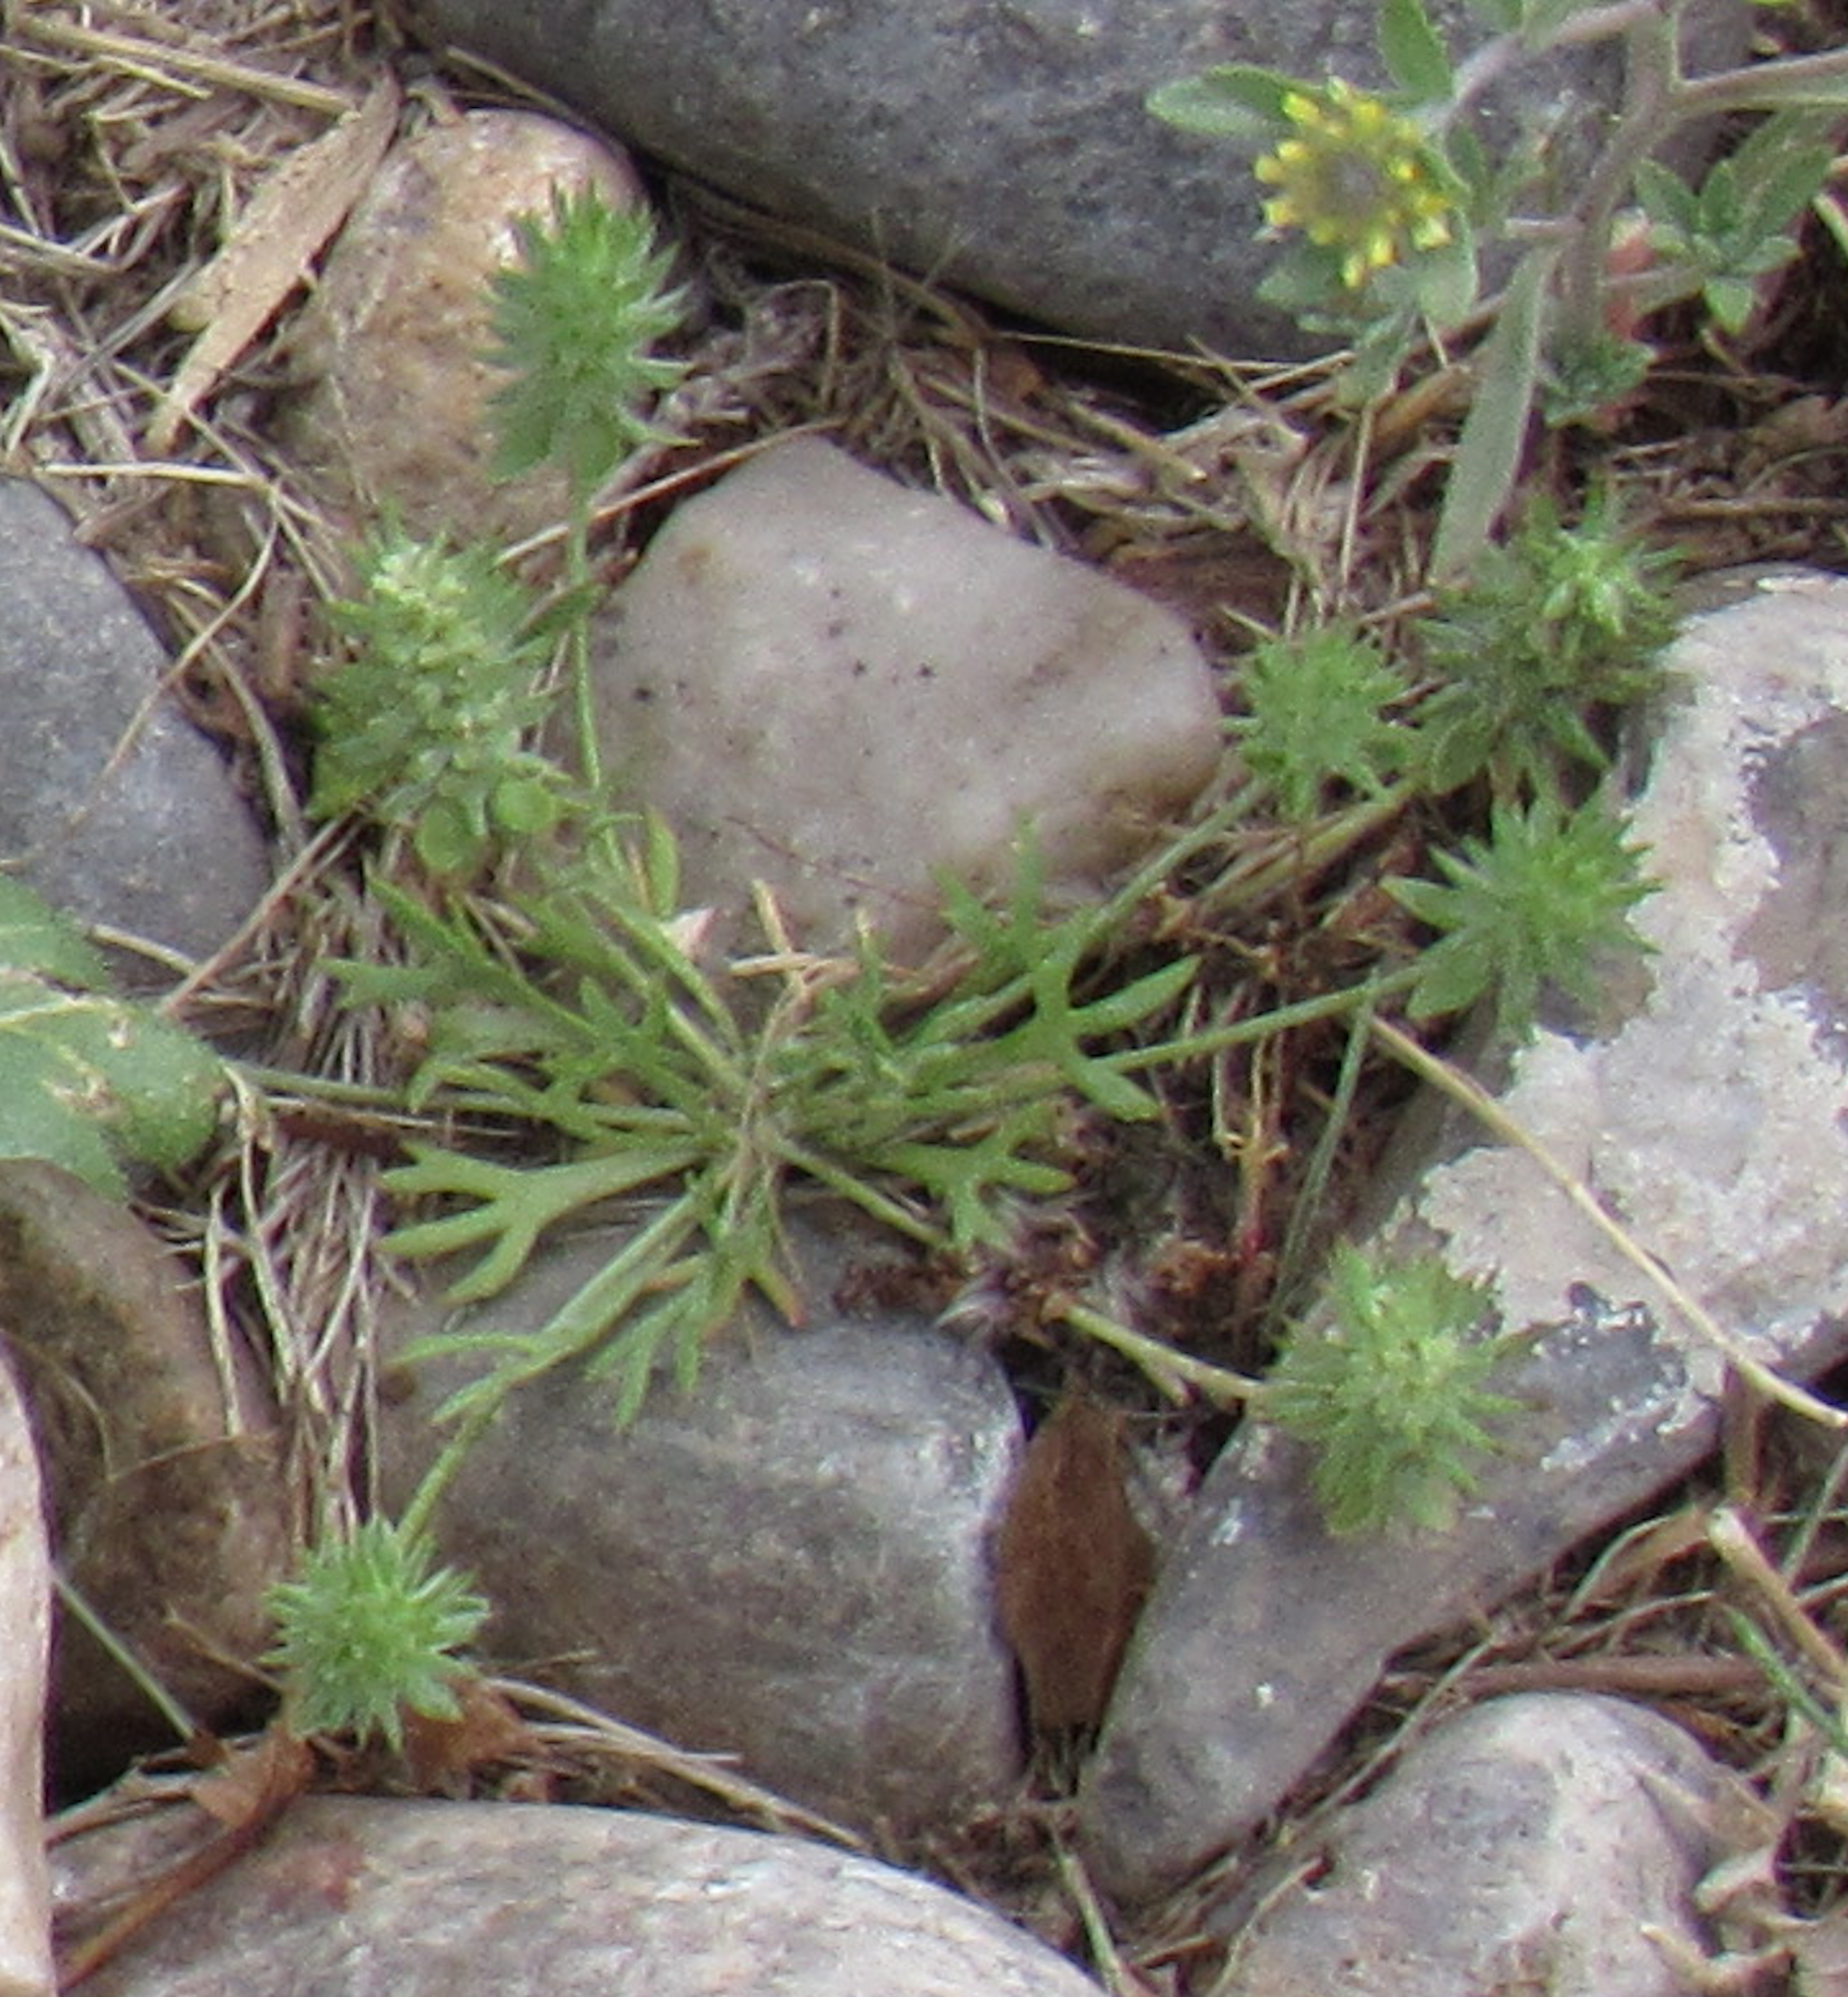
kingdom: Plantae
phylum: Tracheophyta
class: Magnoliopsida
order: Ranunculales
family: Ranunculaceae
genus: Ceratocephala
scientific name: Ceratocephala orthoceras
